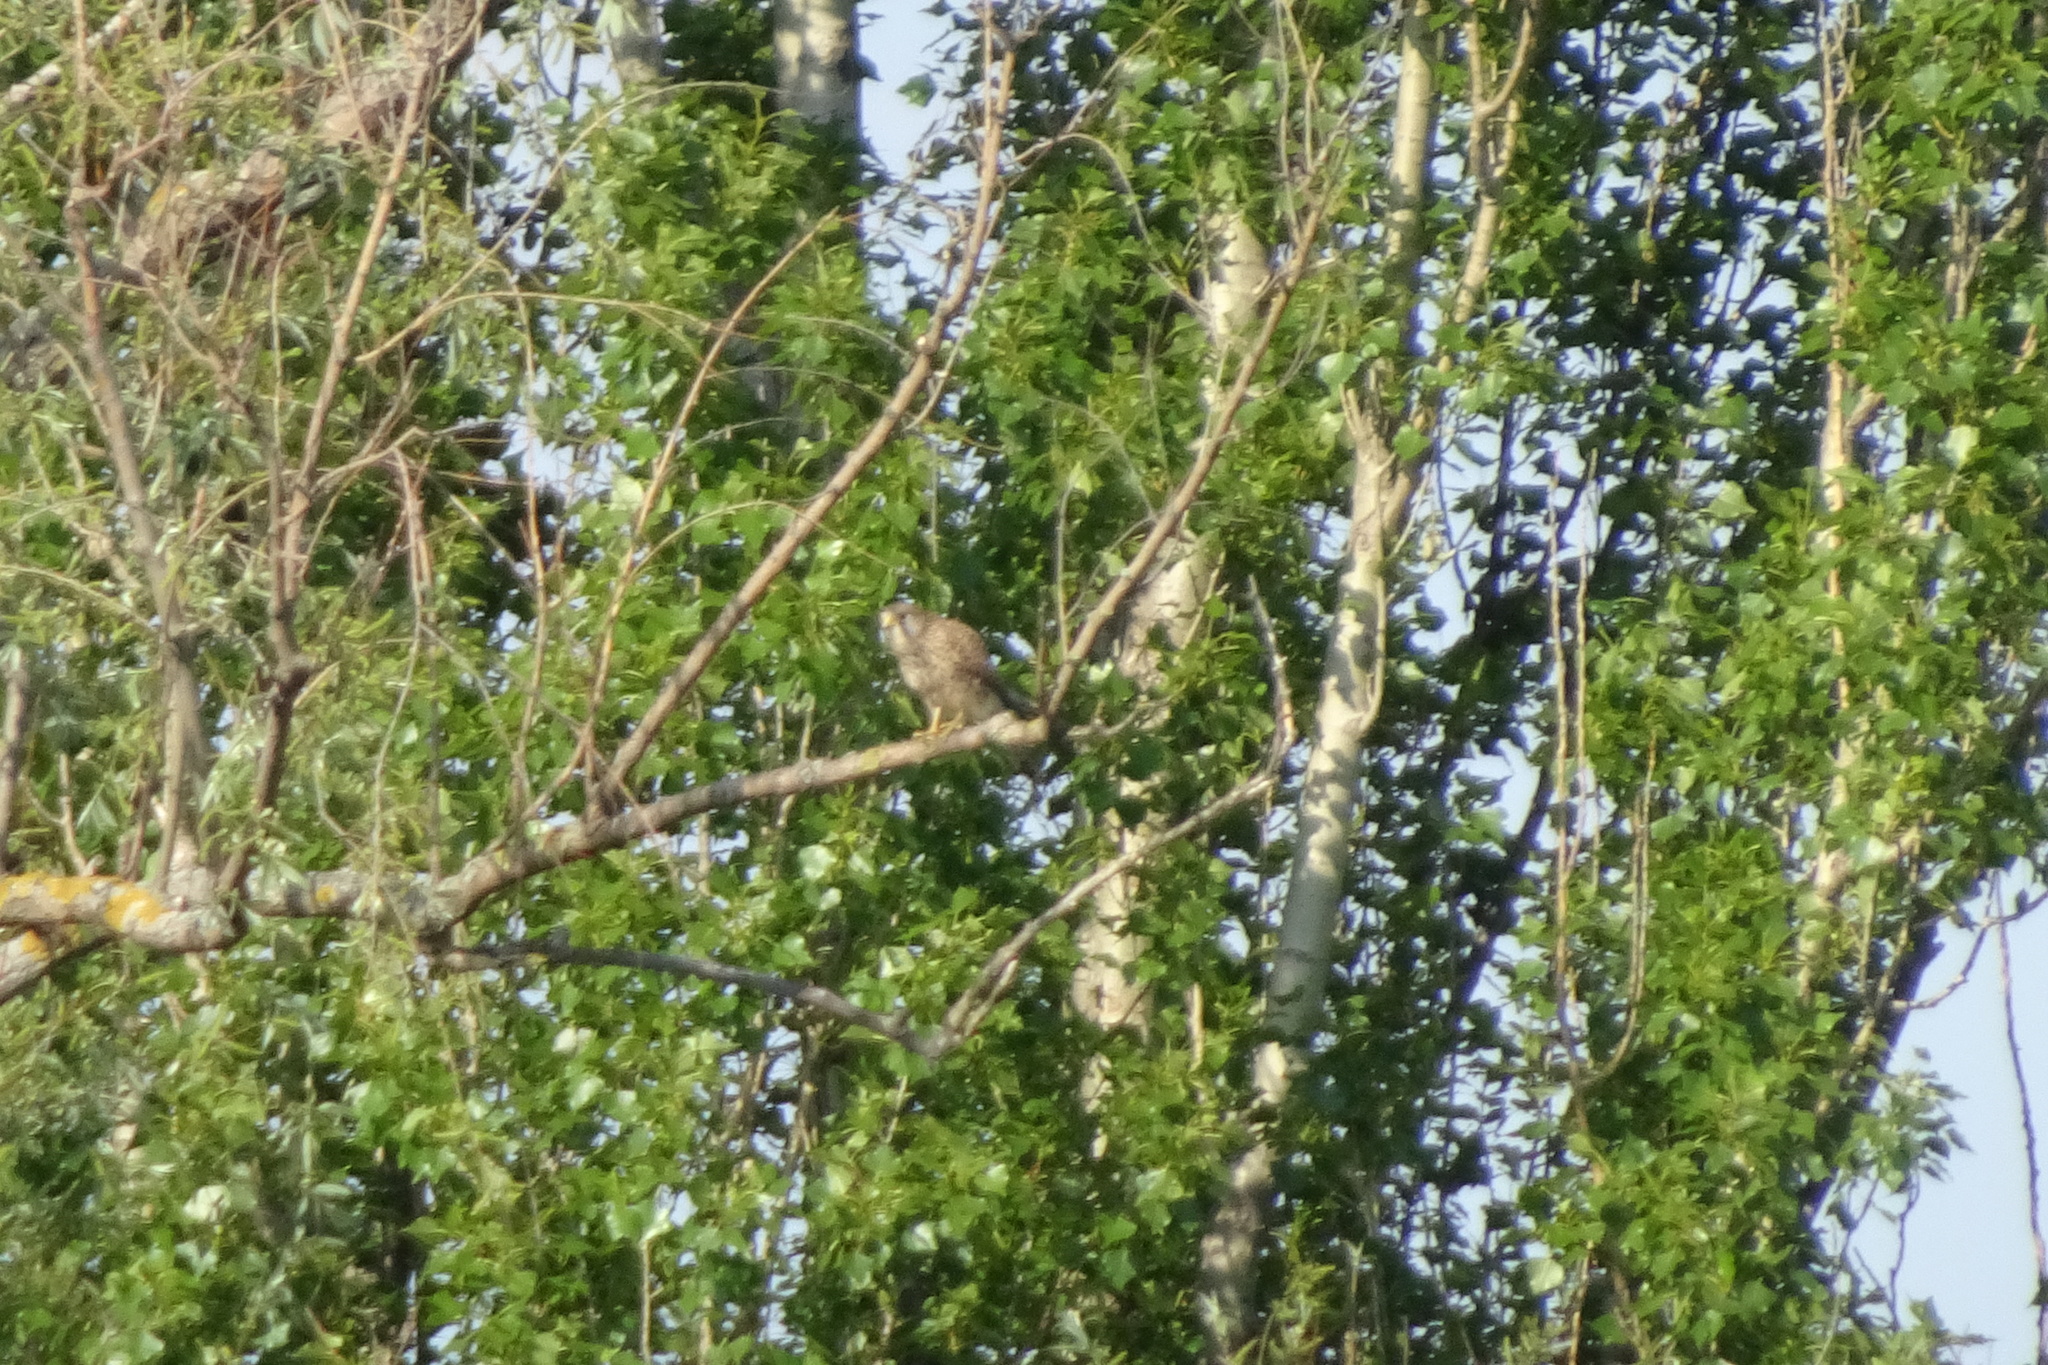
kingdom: Animalia
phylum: Chordata
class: Aves
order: Falconiformes
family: Falconidae
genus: Falco
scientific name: Falco tinnunculus
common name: Common kestrel
